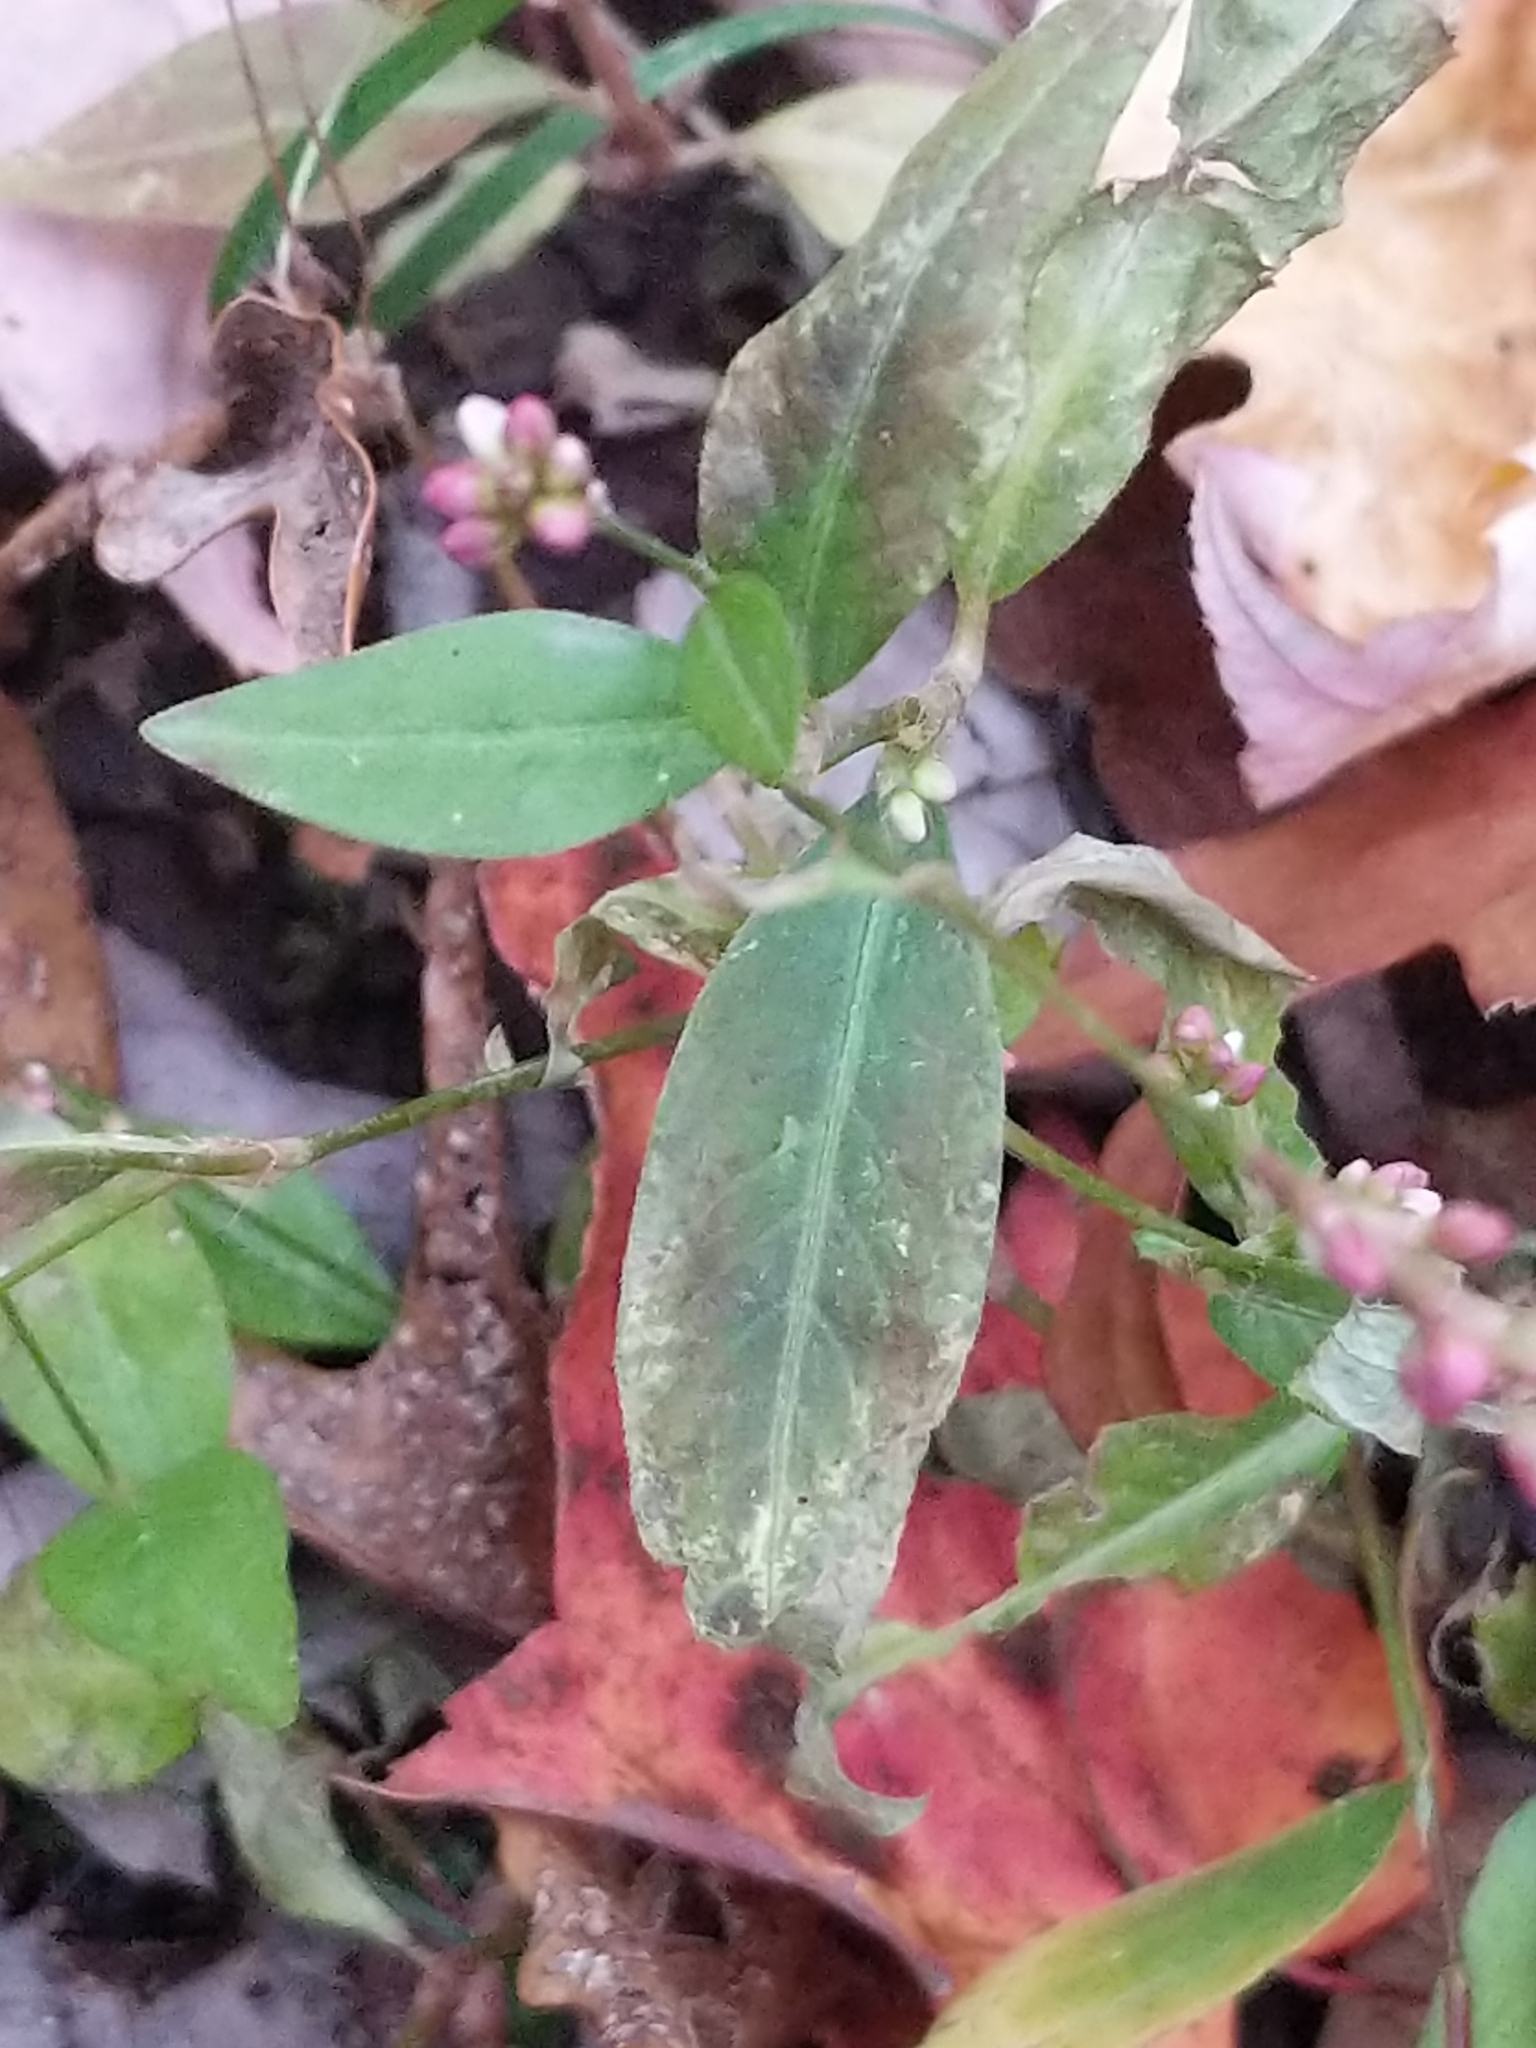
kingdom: Plantae
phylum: Tracheophyta
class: Magnoliopsida
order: Caryophyllales
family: Polygonaceae
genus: Persicaria
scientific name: Persicaria longiseta
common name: Bristly lady's-thumb
